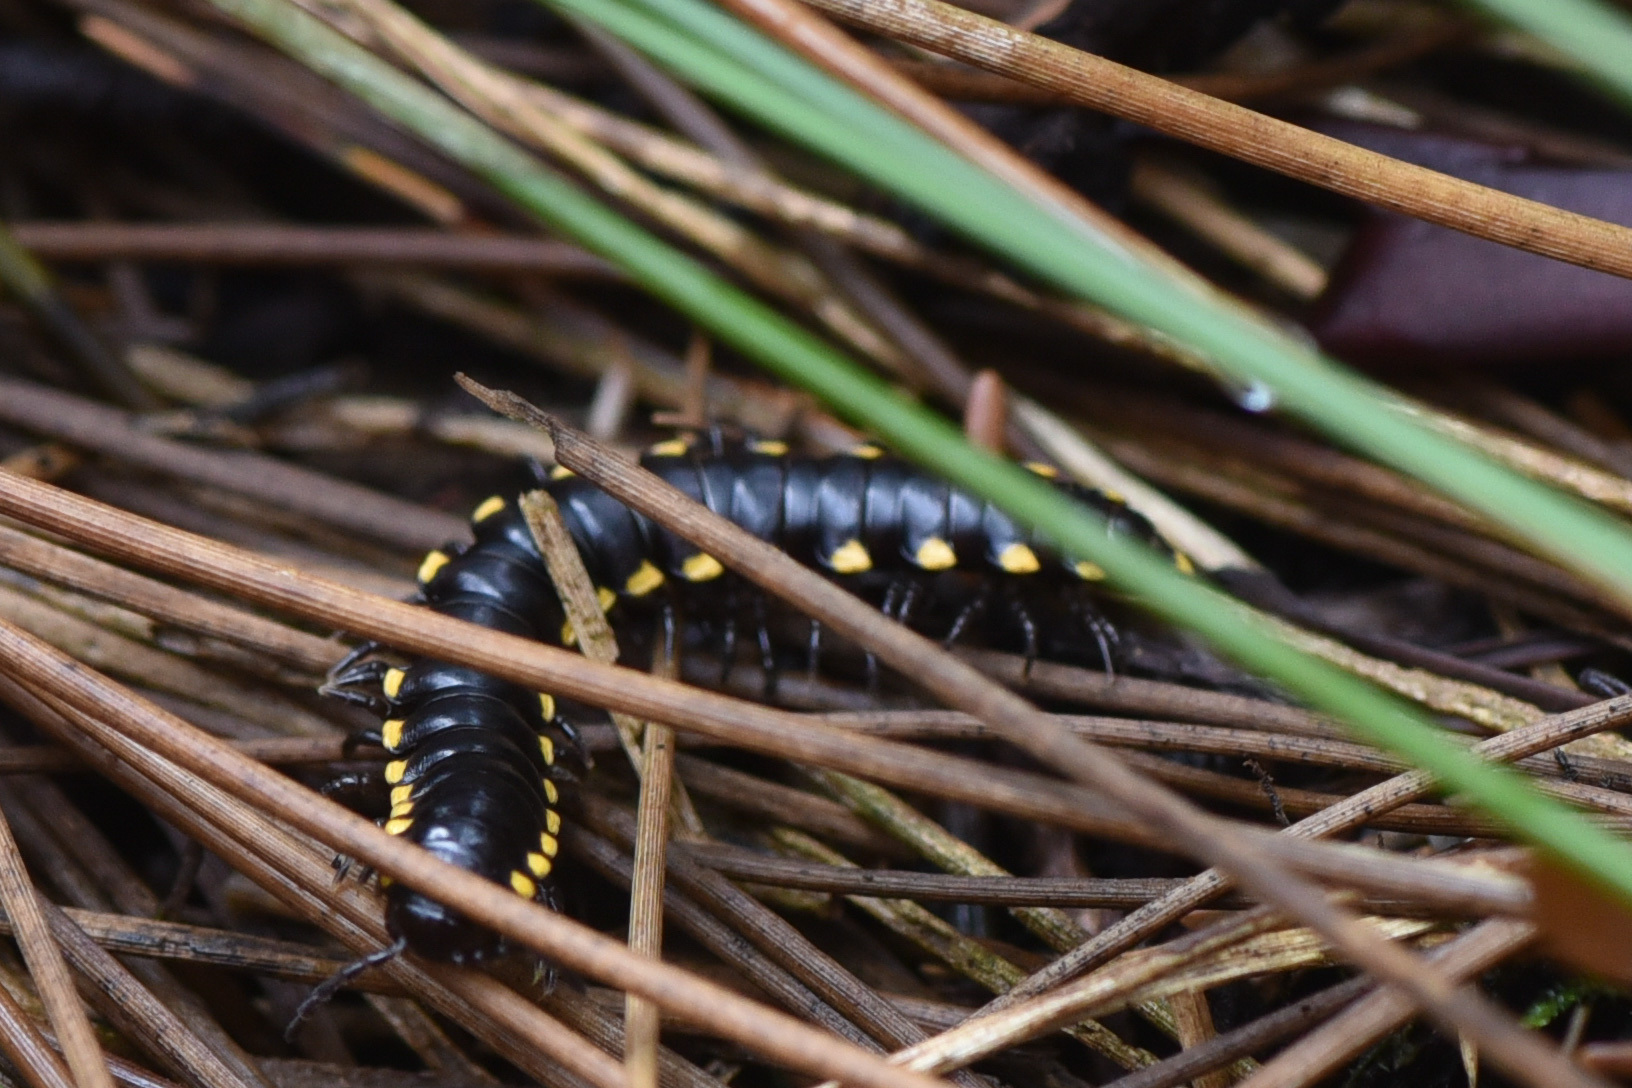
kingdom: Animalia
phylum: Arthropoda
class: Diplopoda
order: Polydesmida
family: Xystodesmidae
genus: Harpaphe
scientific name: Harpaphe haydeniana
